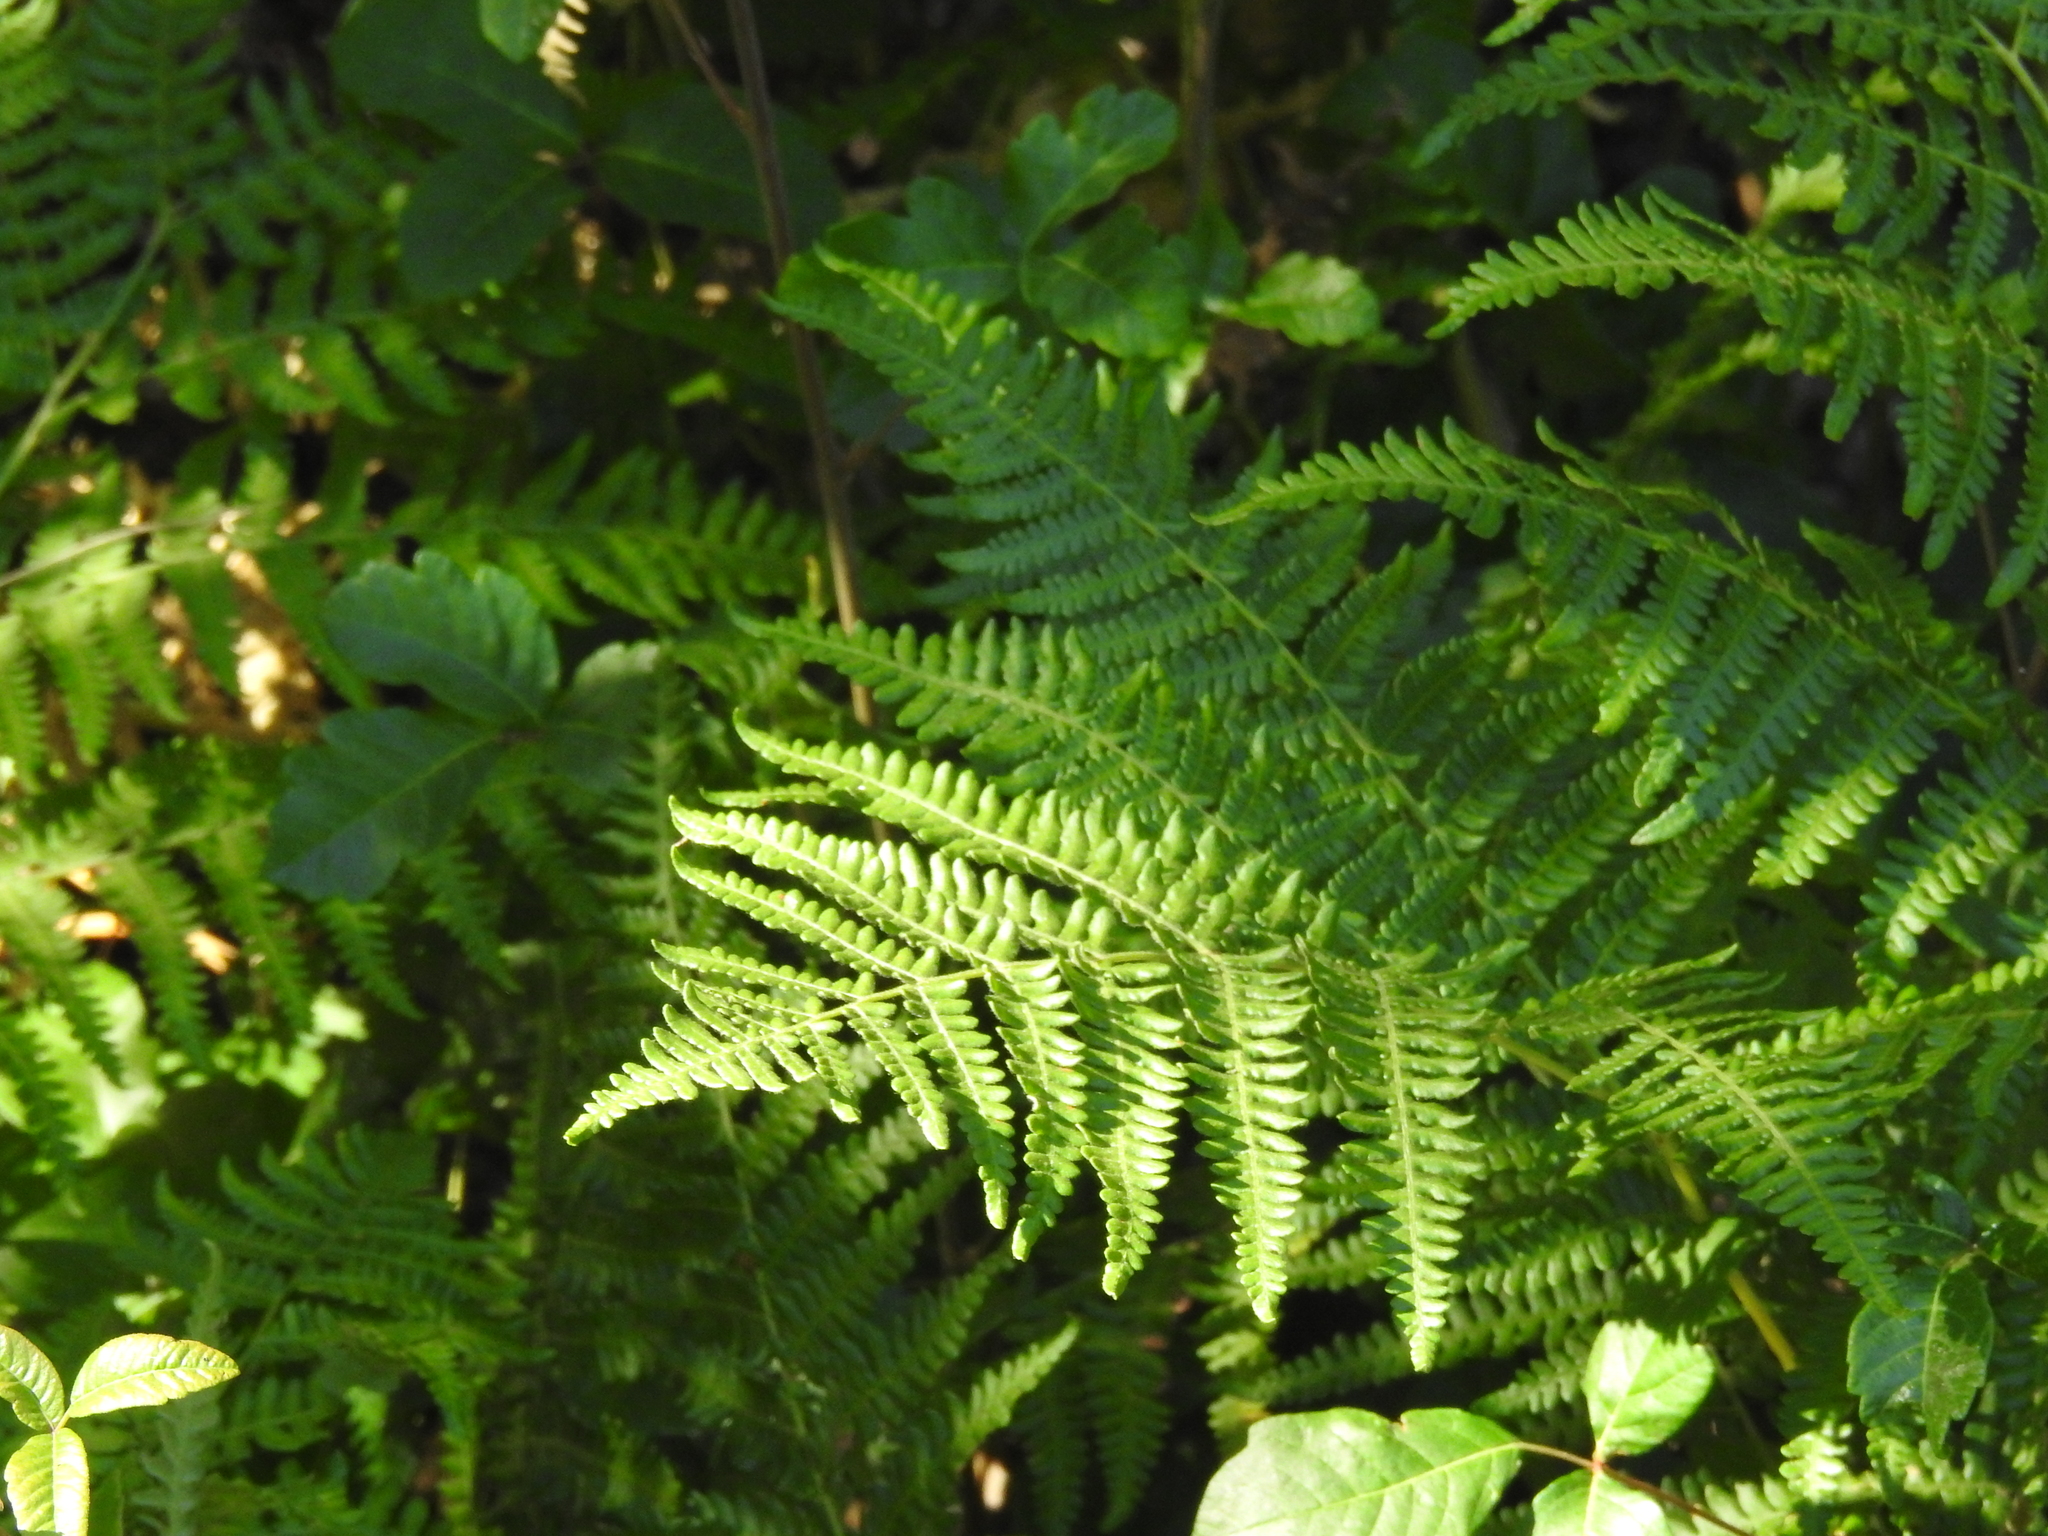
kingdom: Plantae
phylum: Tracheophyta
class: Polypodiopsida
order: Polypodiales
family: Dennstaedtiaceae
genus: Pteridium
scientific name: Pteridium aquilinum
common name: Bracken
